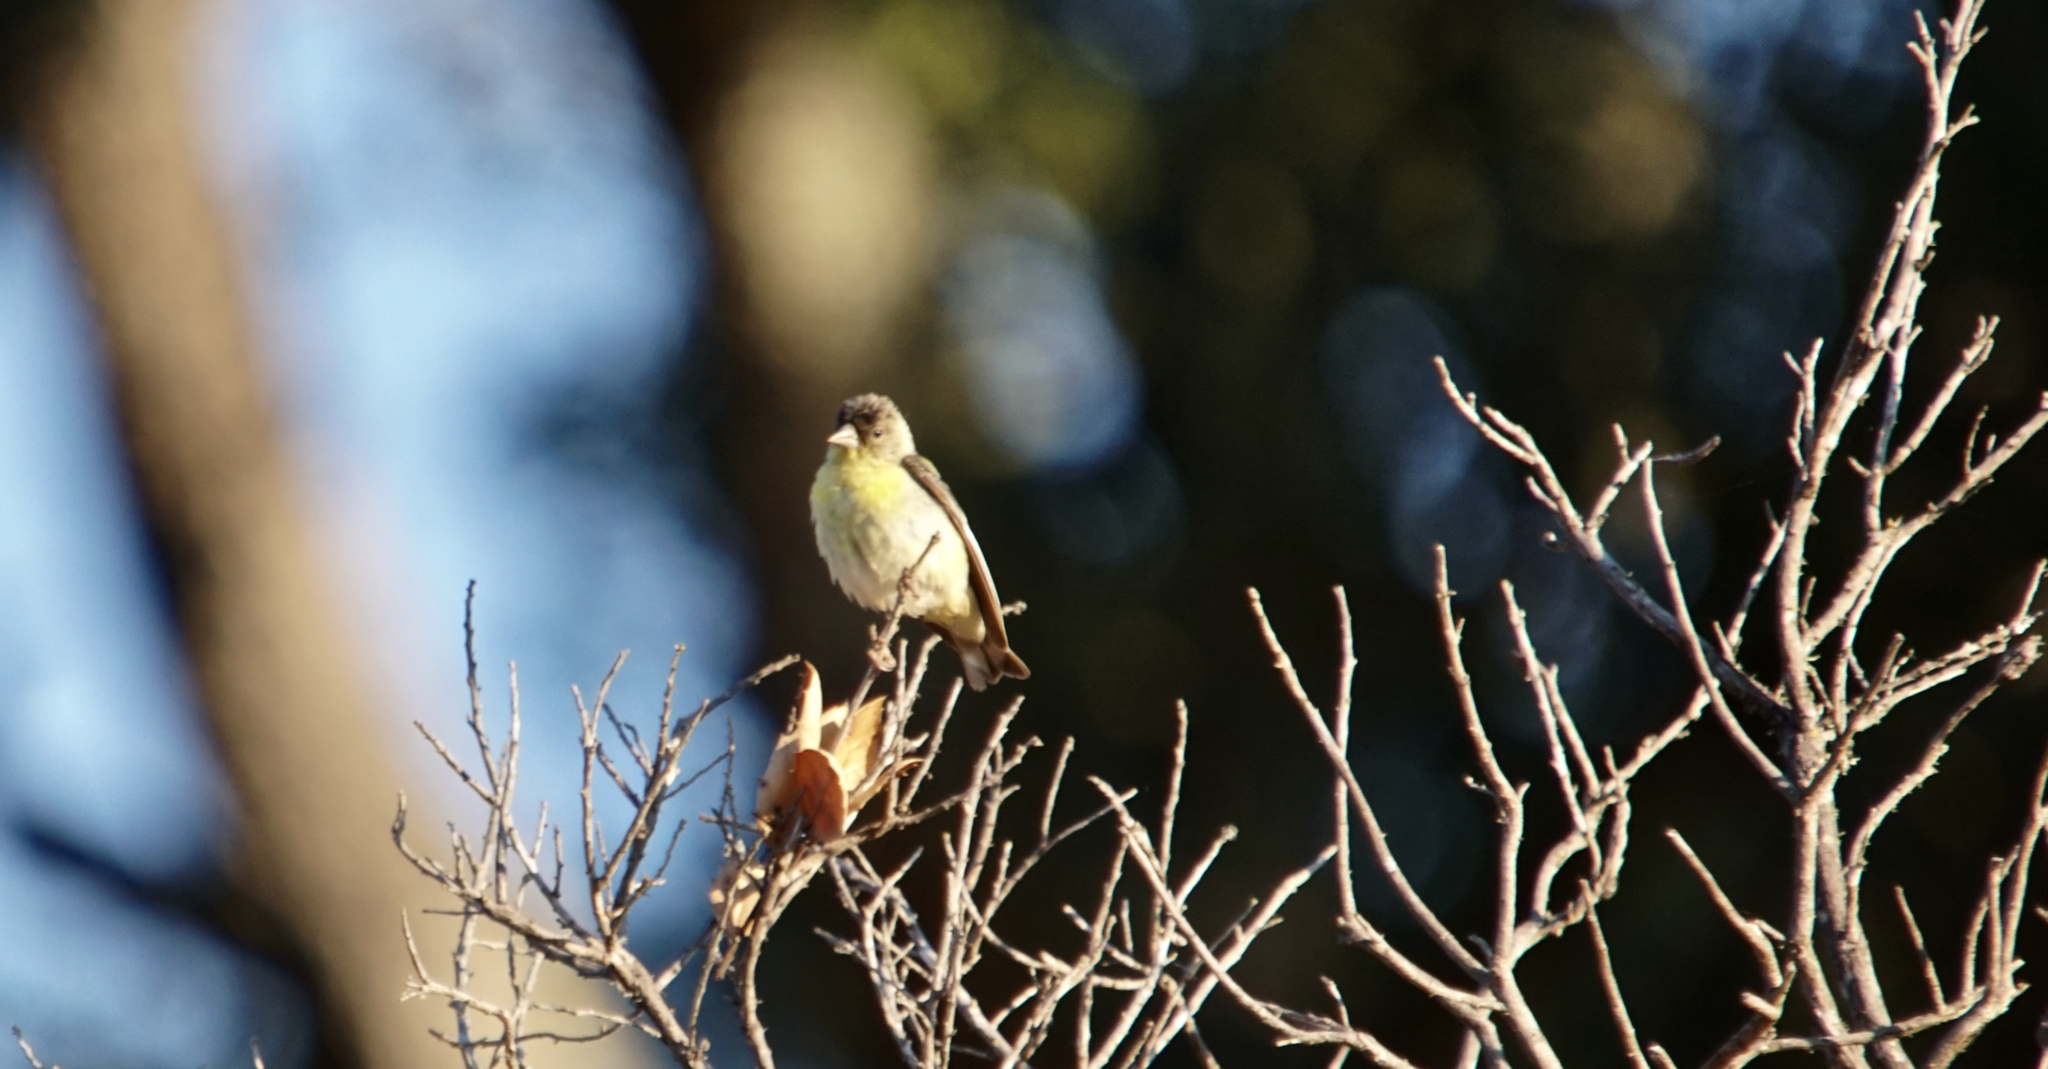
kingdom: Animalia
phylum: Chordata
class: Aves
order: Passeriformes
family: Fringillidae
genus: Spinus
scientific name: Spinus psaltria
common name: Lesser goldfinch
